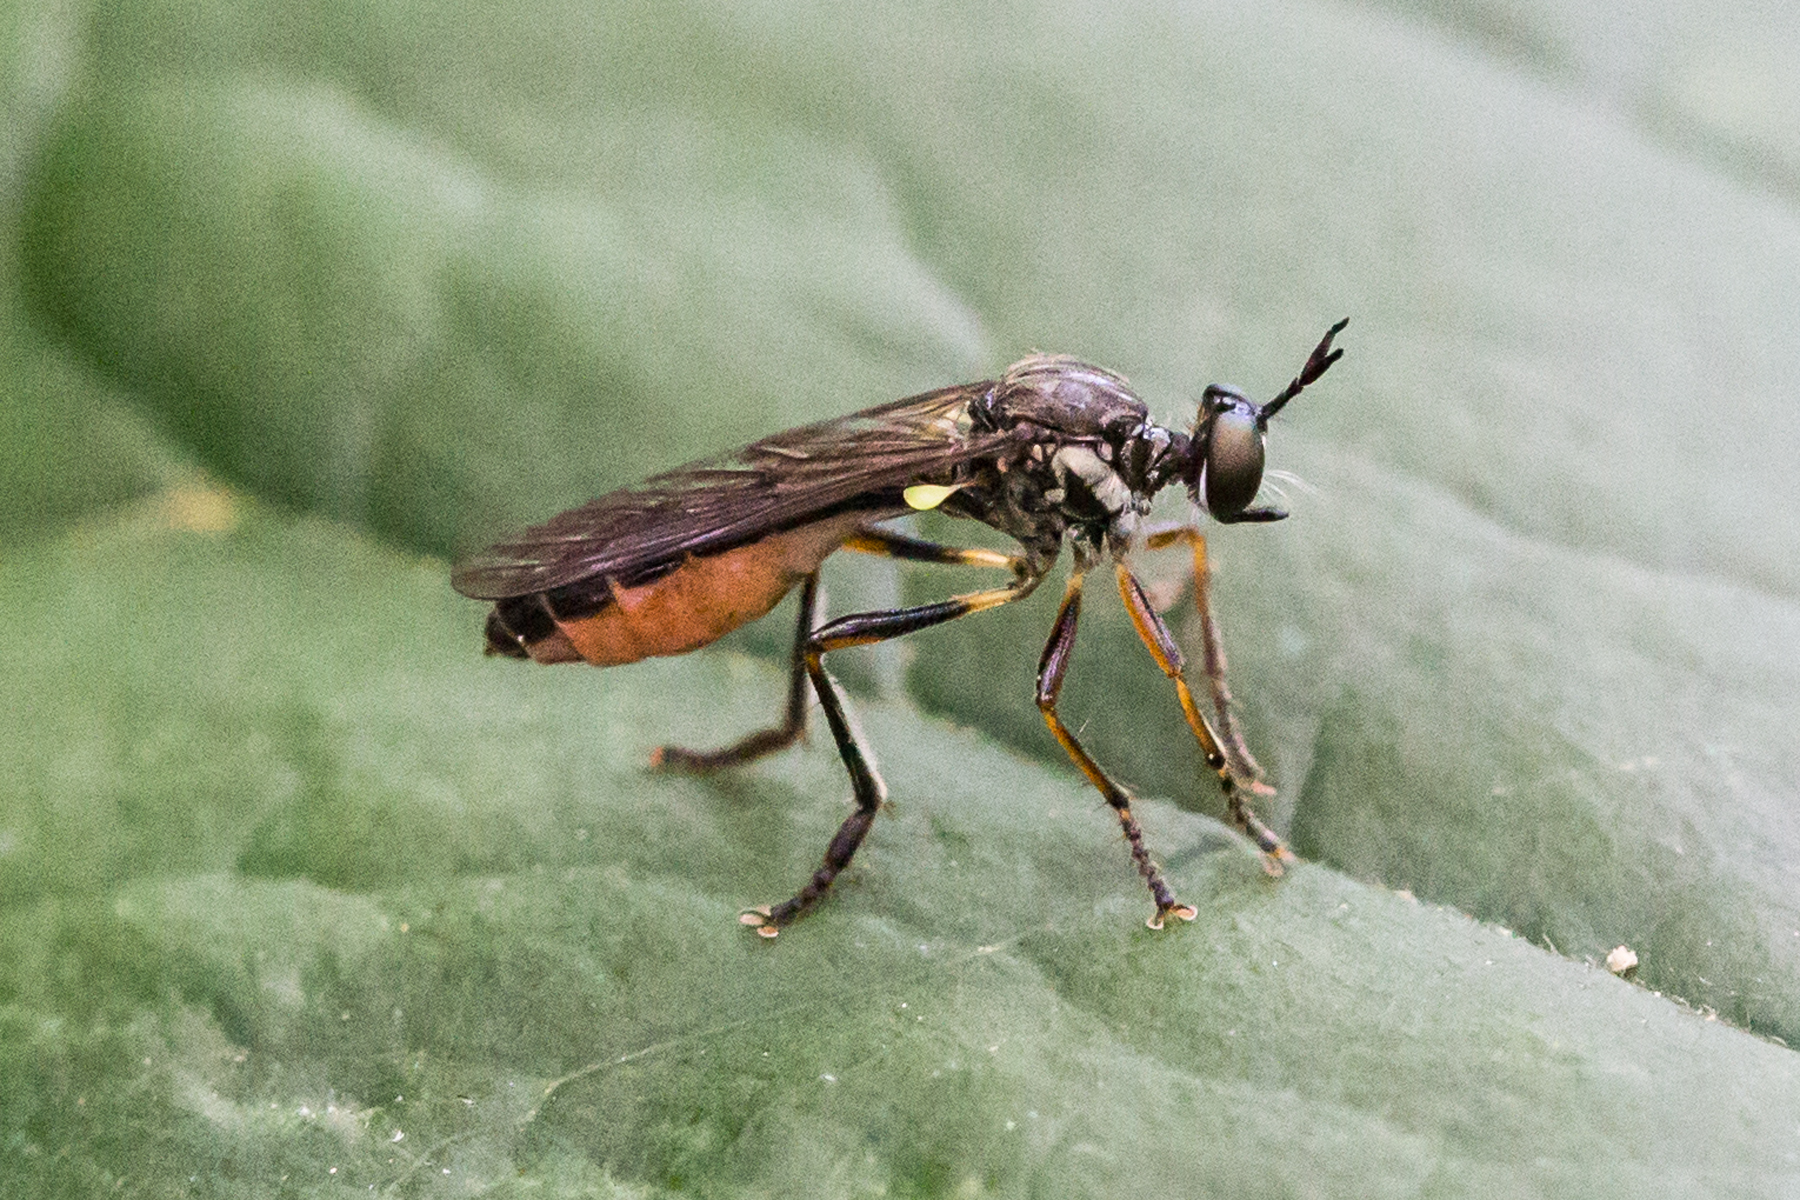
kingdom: Animalia
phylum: Arthropoda
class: Insecta
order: Diptera
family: Asilidae
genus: Dioctria
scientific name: Dioctria hyalipennis
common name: Stripe-legged robberfly
